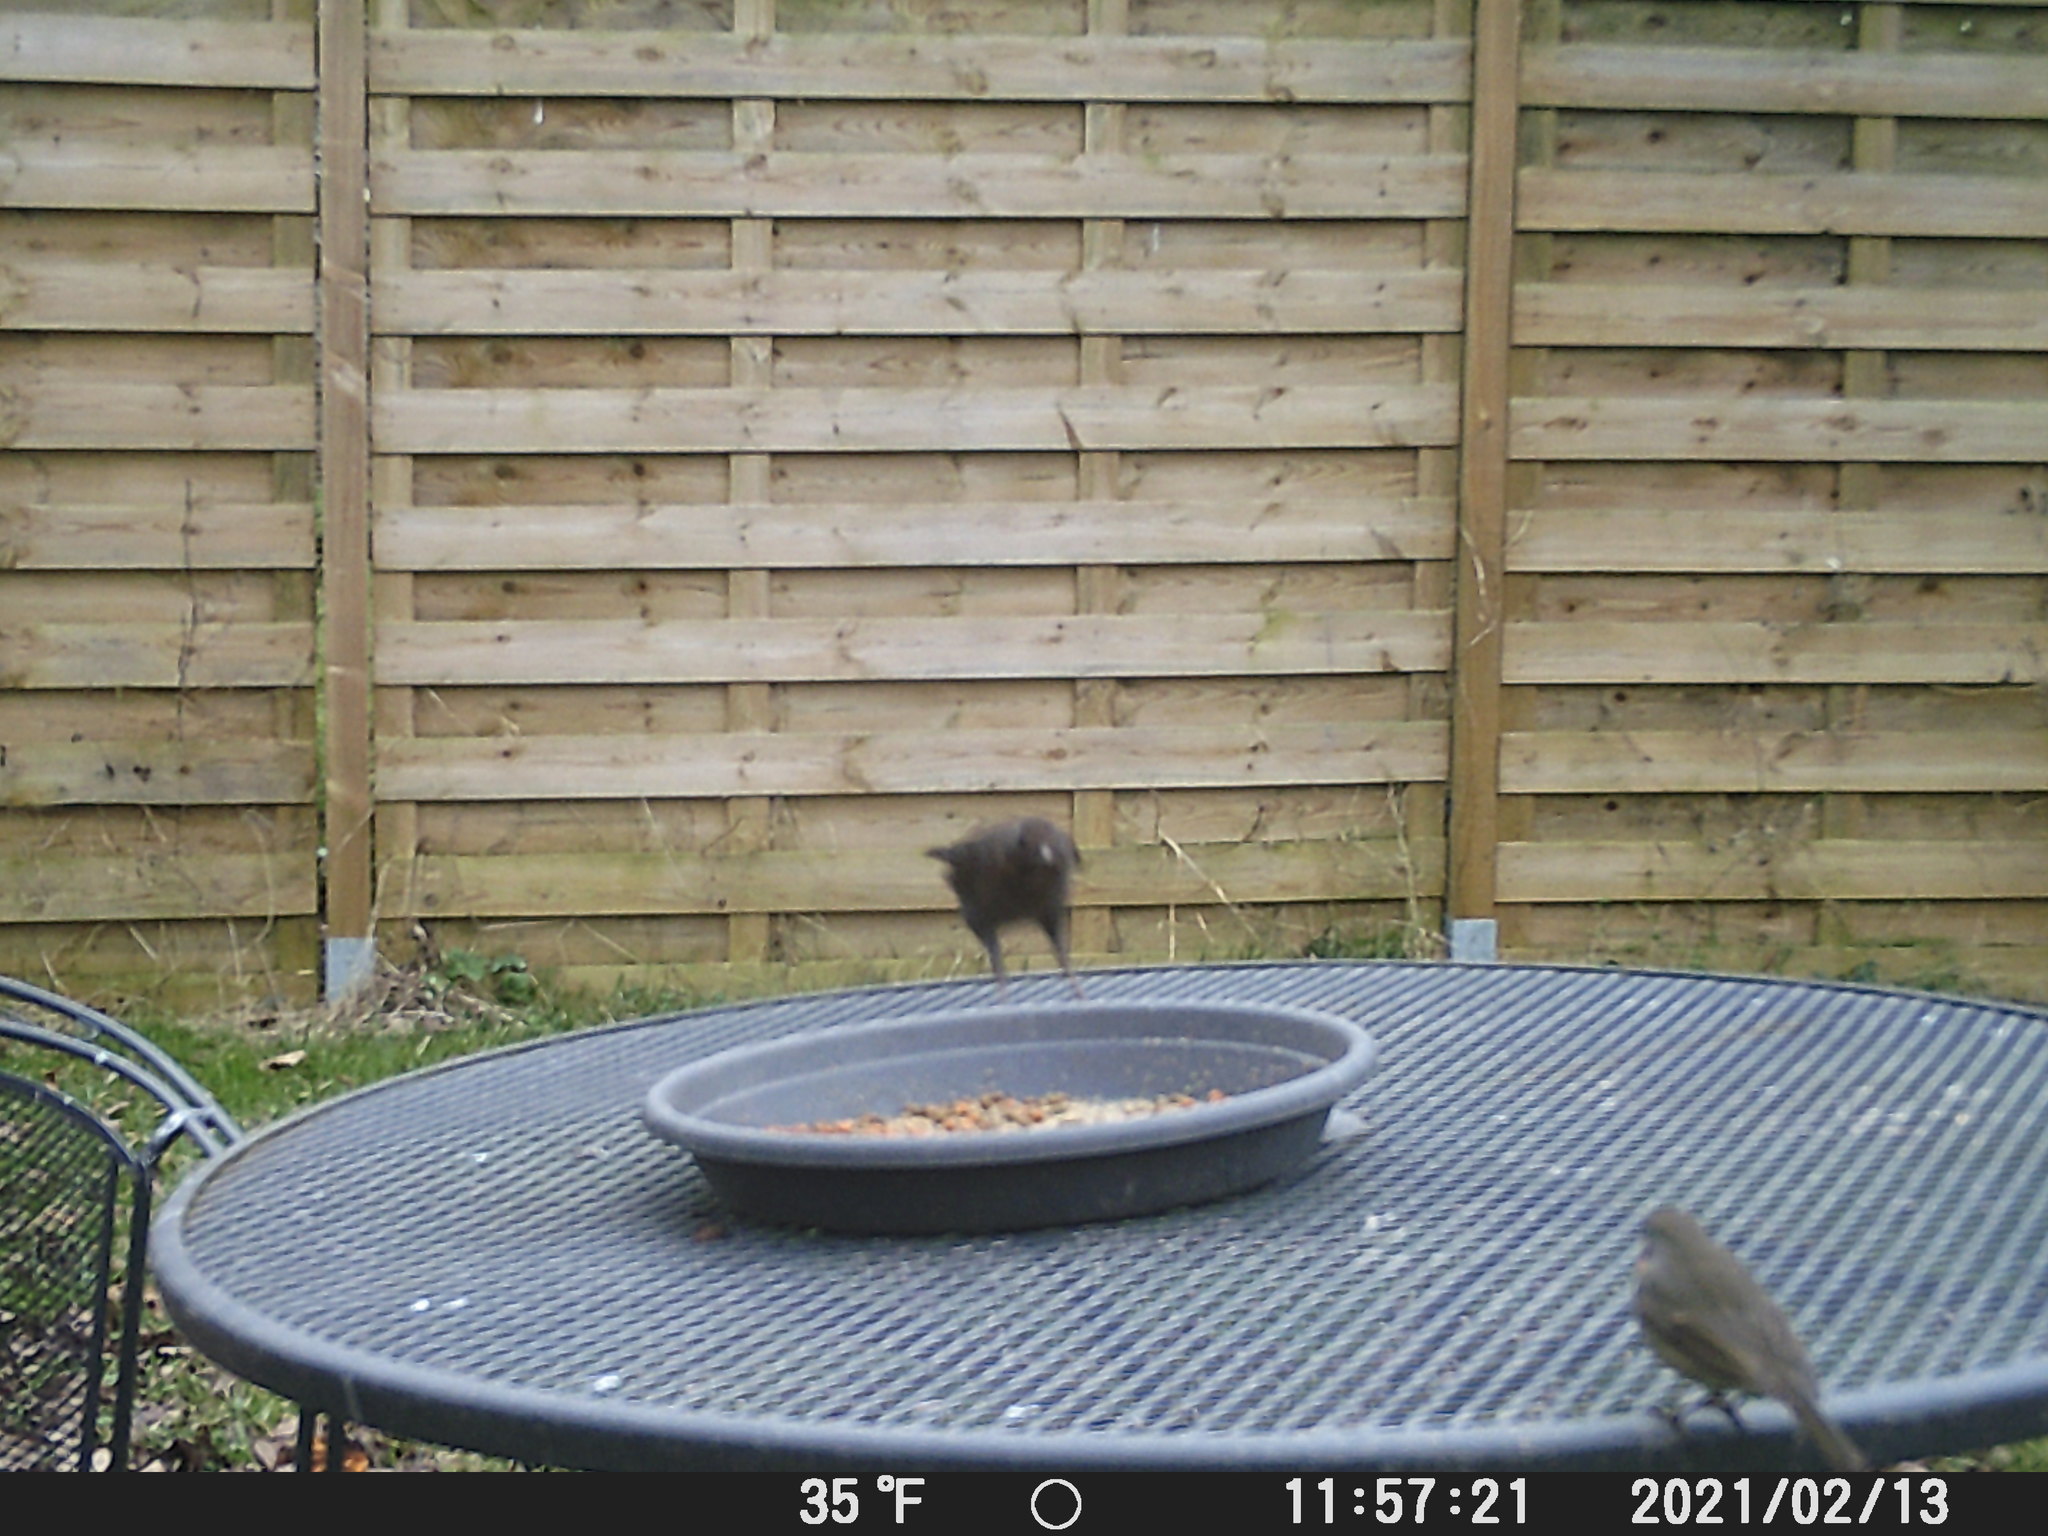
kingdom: Animalia
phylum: Chordata
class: Aves
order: Passeriformes
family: Muscicapidae
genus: Erithacus
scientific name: Erithacus rubecula
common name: European robin
